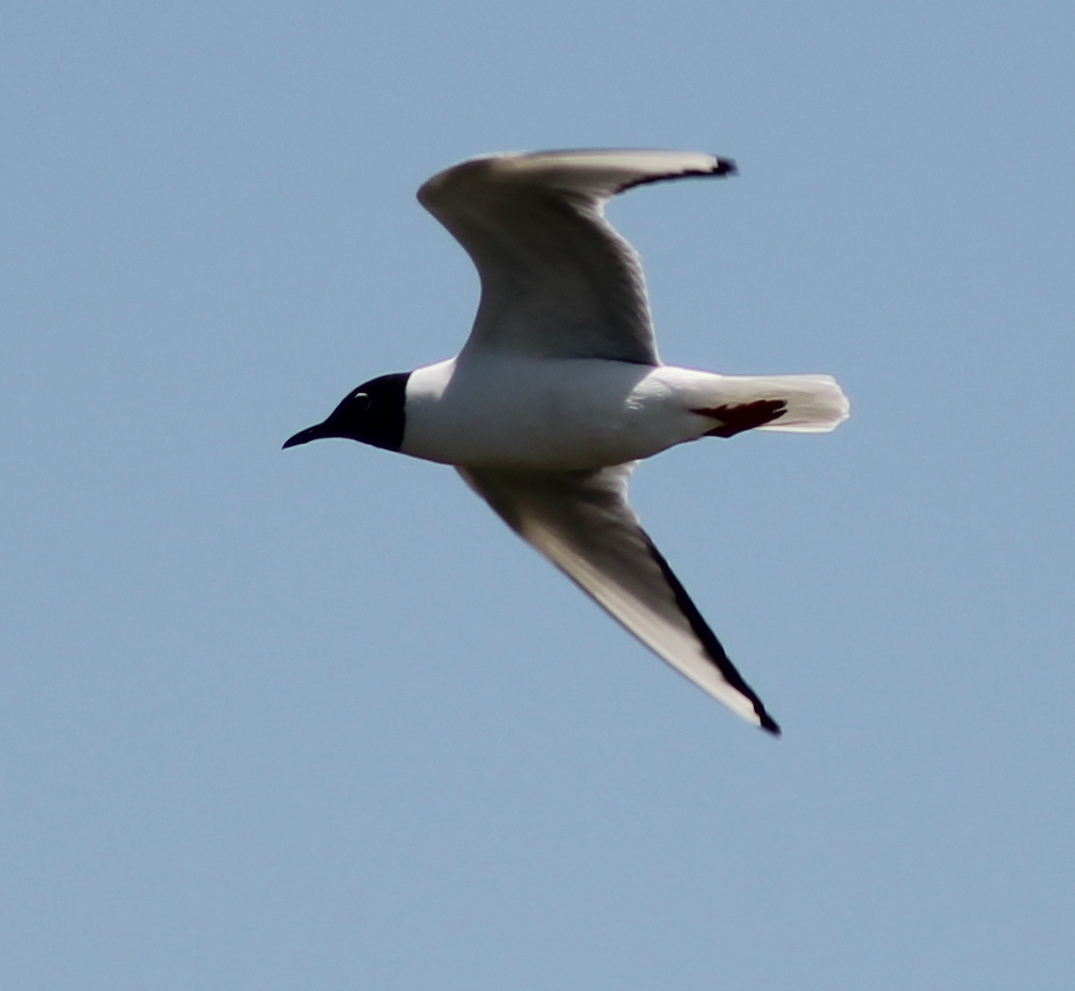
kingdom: Animalia
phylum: Chordata
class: Aves
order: Charadriiformes
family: Laridae
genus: Chroicocephalus
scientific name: Chroicocephalus philadelphia
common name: Bonaparte's gull
